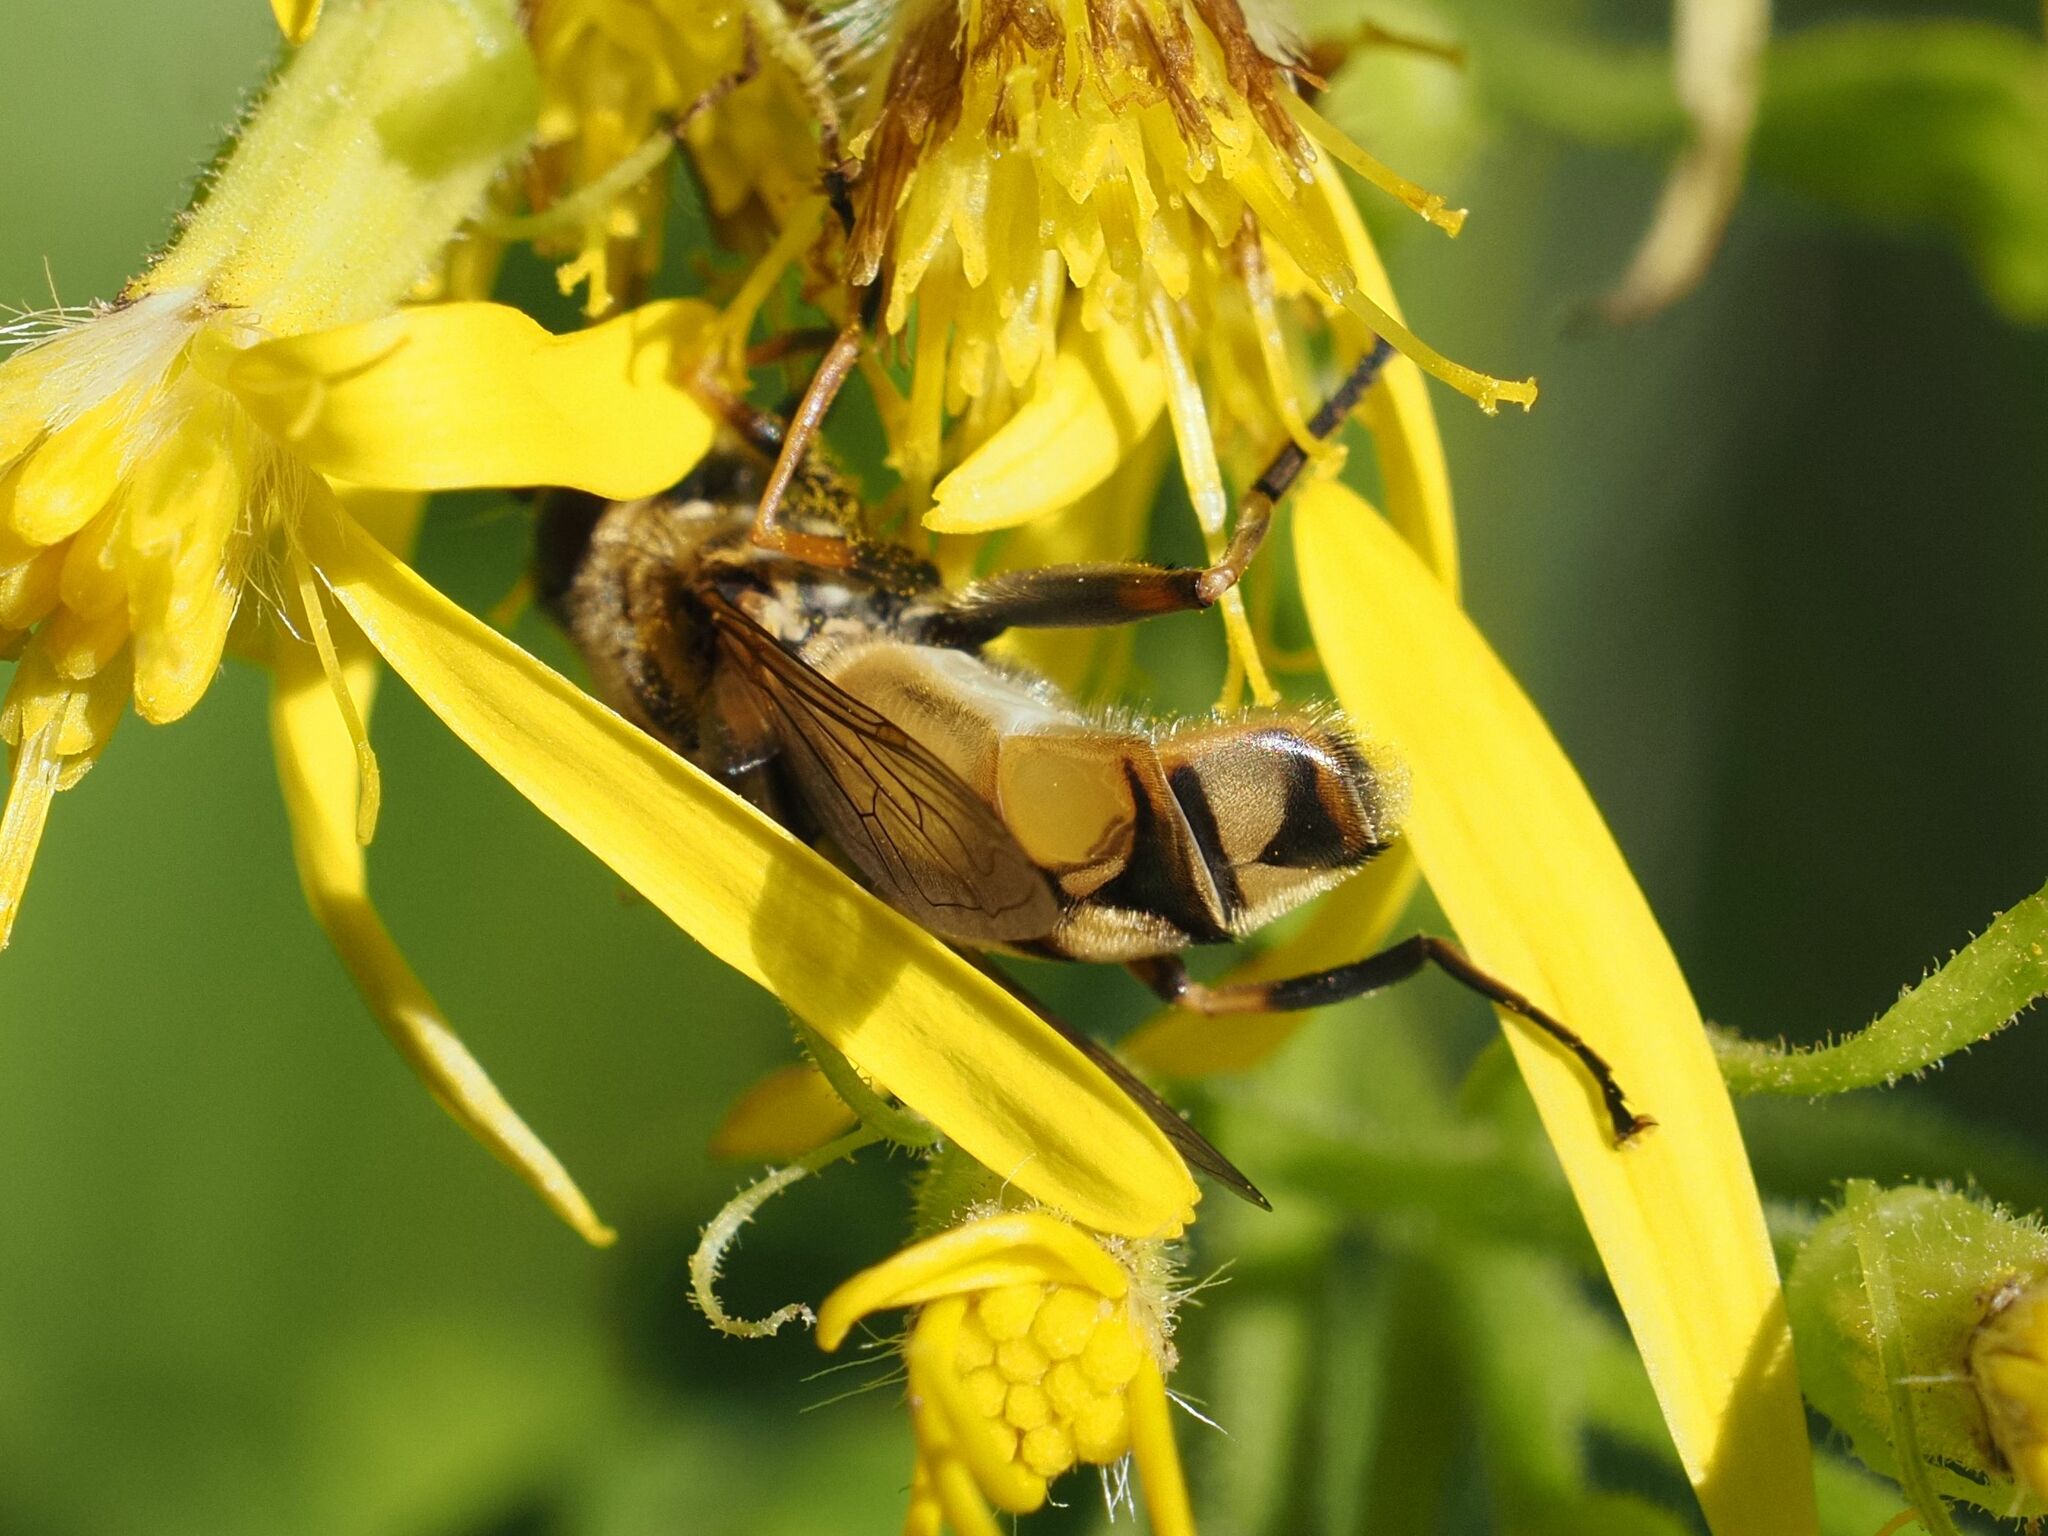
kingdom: Animalia
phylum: Arthropoda
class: Insecta
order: Diptera
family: Syrphidae
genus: Helophilus
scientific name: Helophilus hybridus
